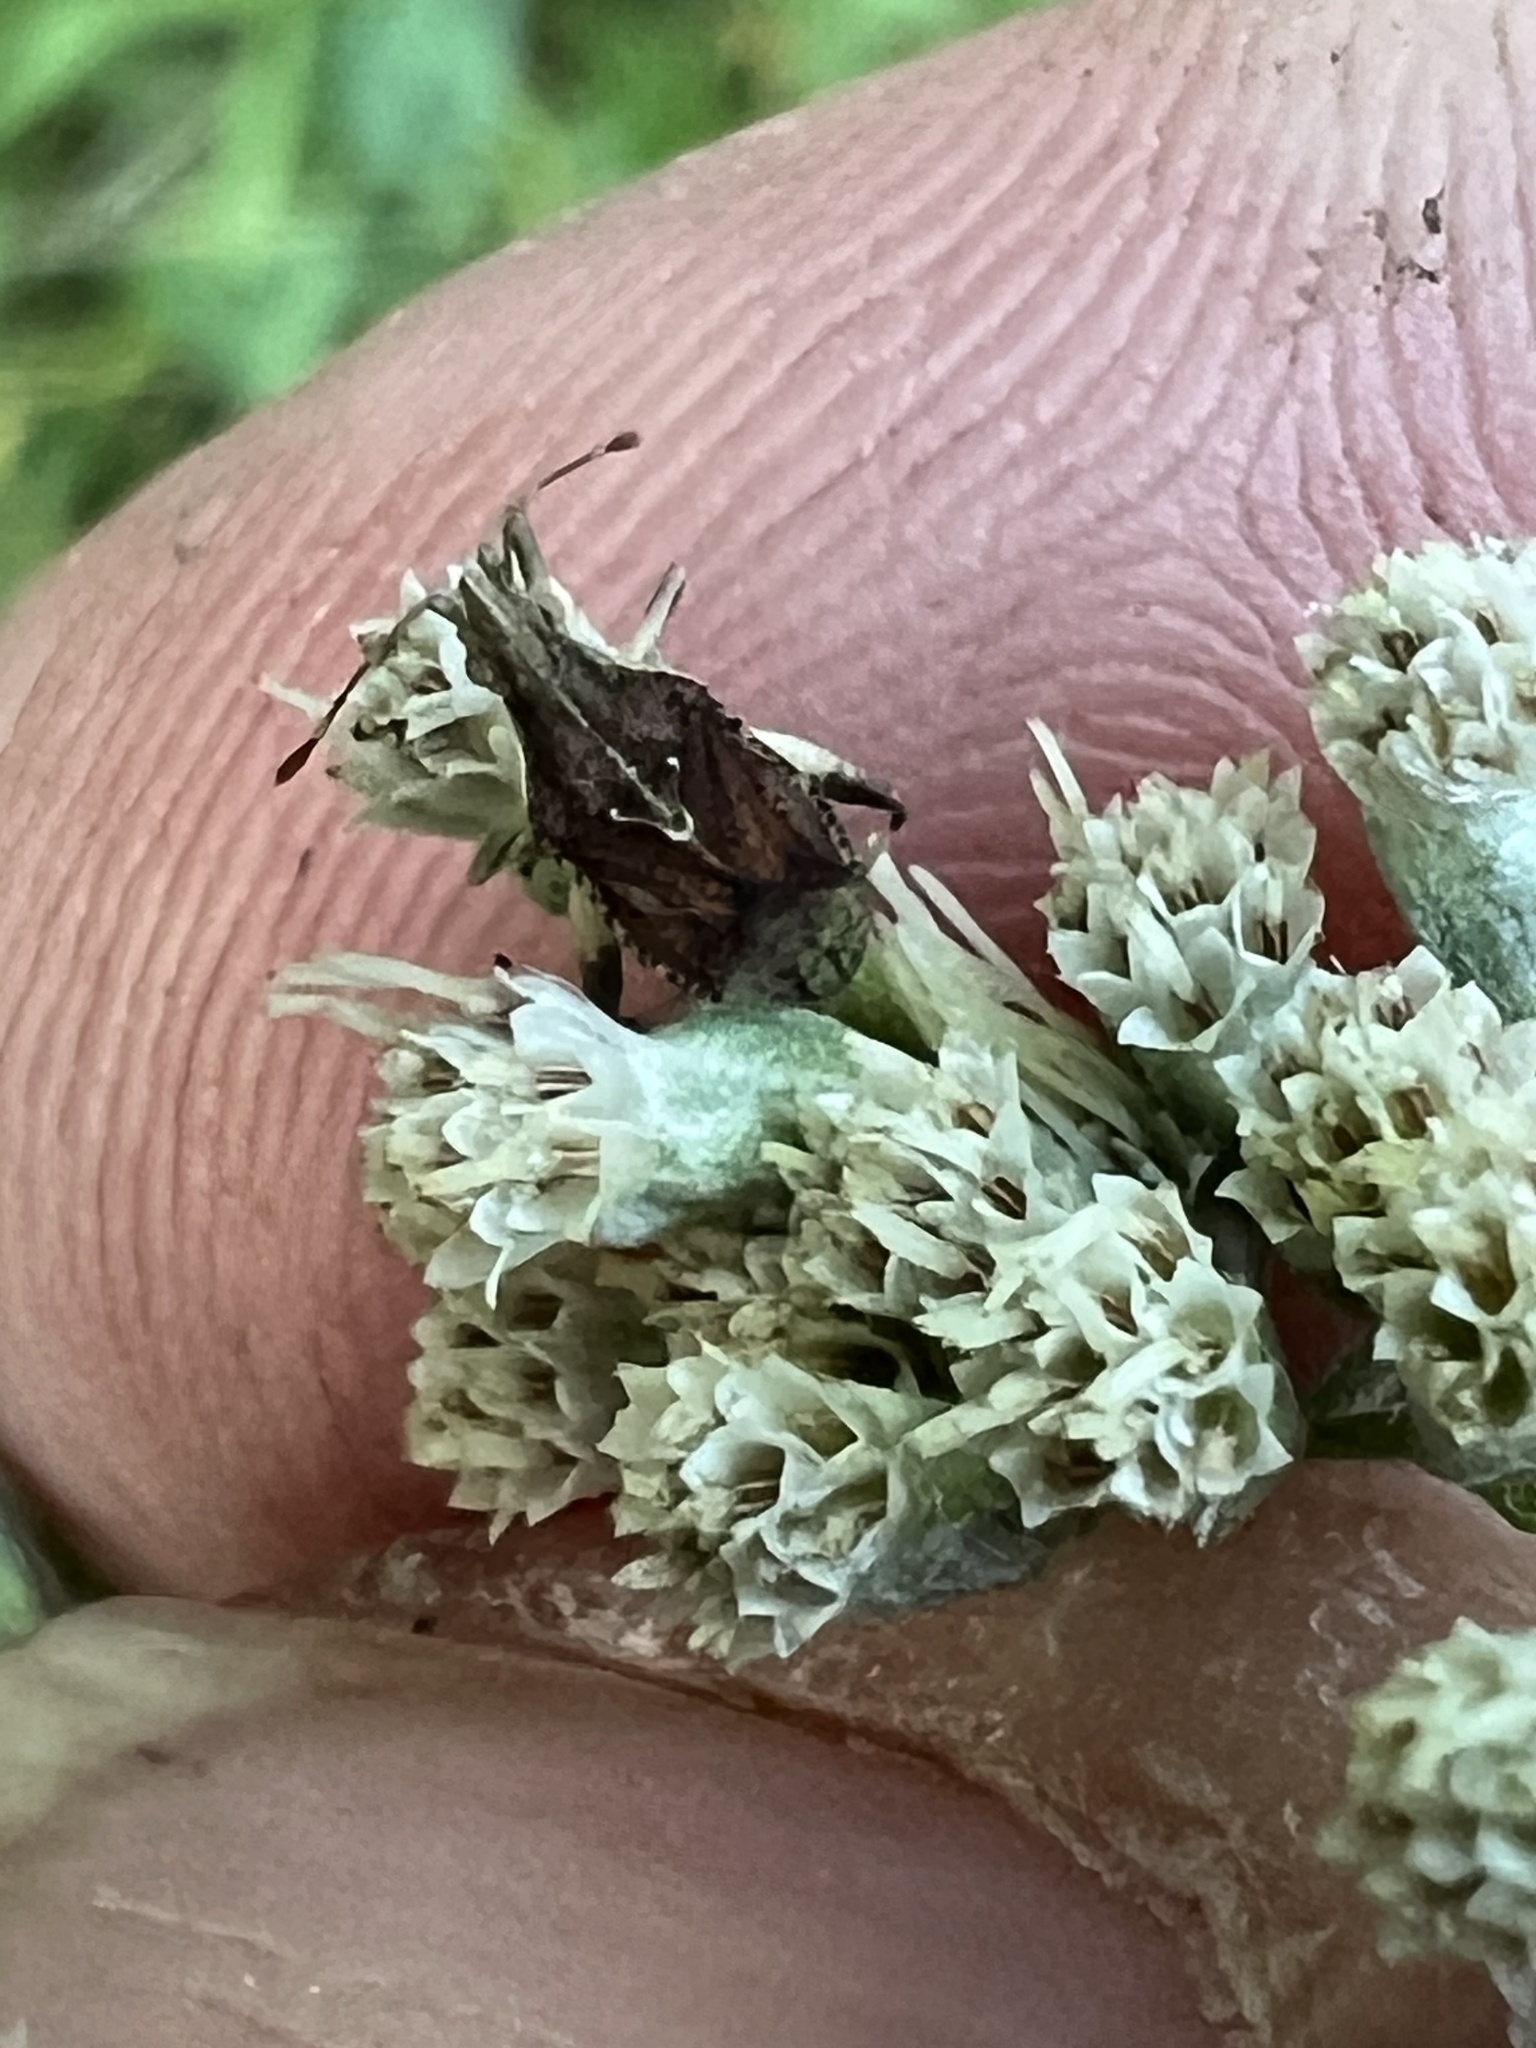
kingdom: Animalia
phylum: Arthropoda
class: Insecta
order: Hemiptera
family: Rhopalidae
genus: Harmostes
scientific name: Harmostes fraterculus
